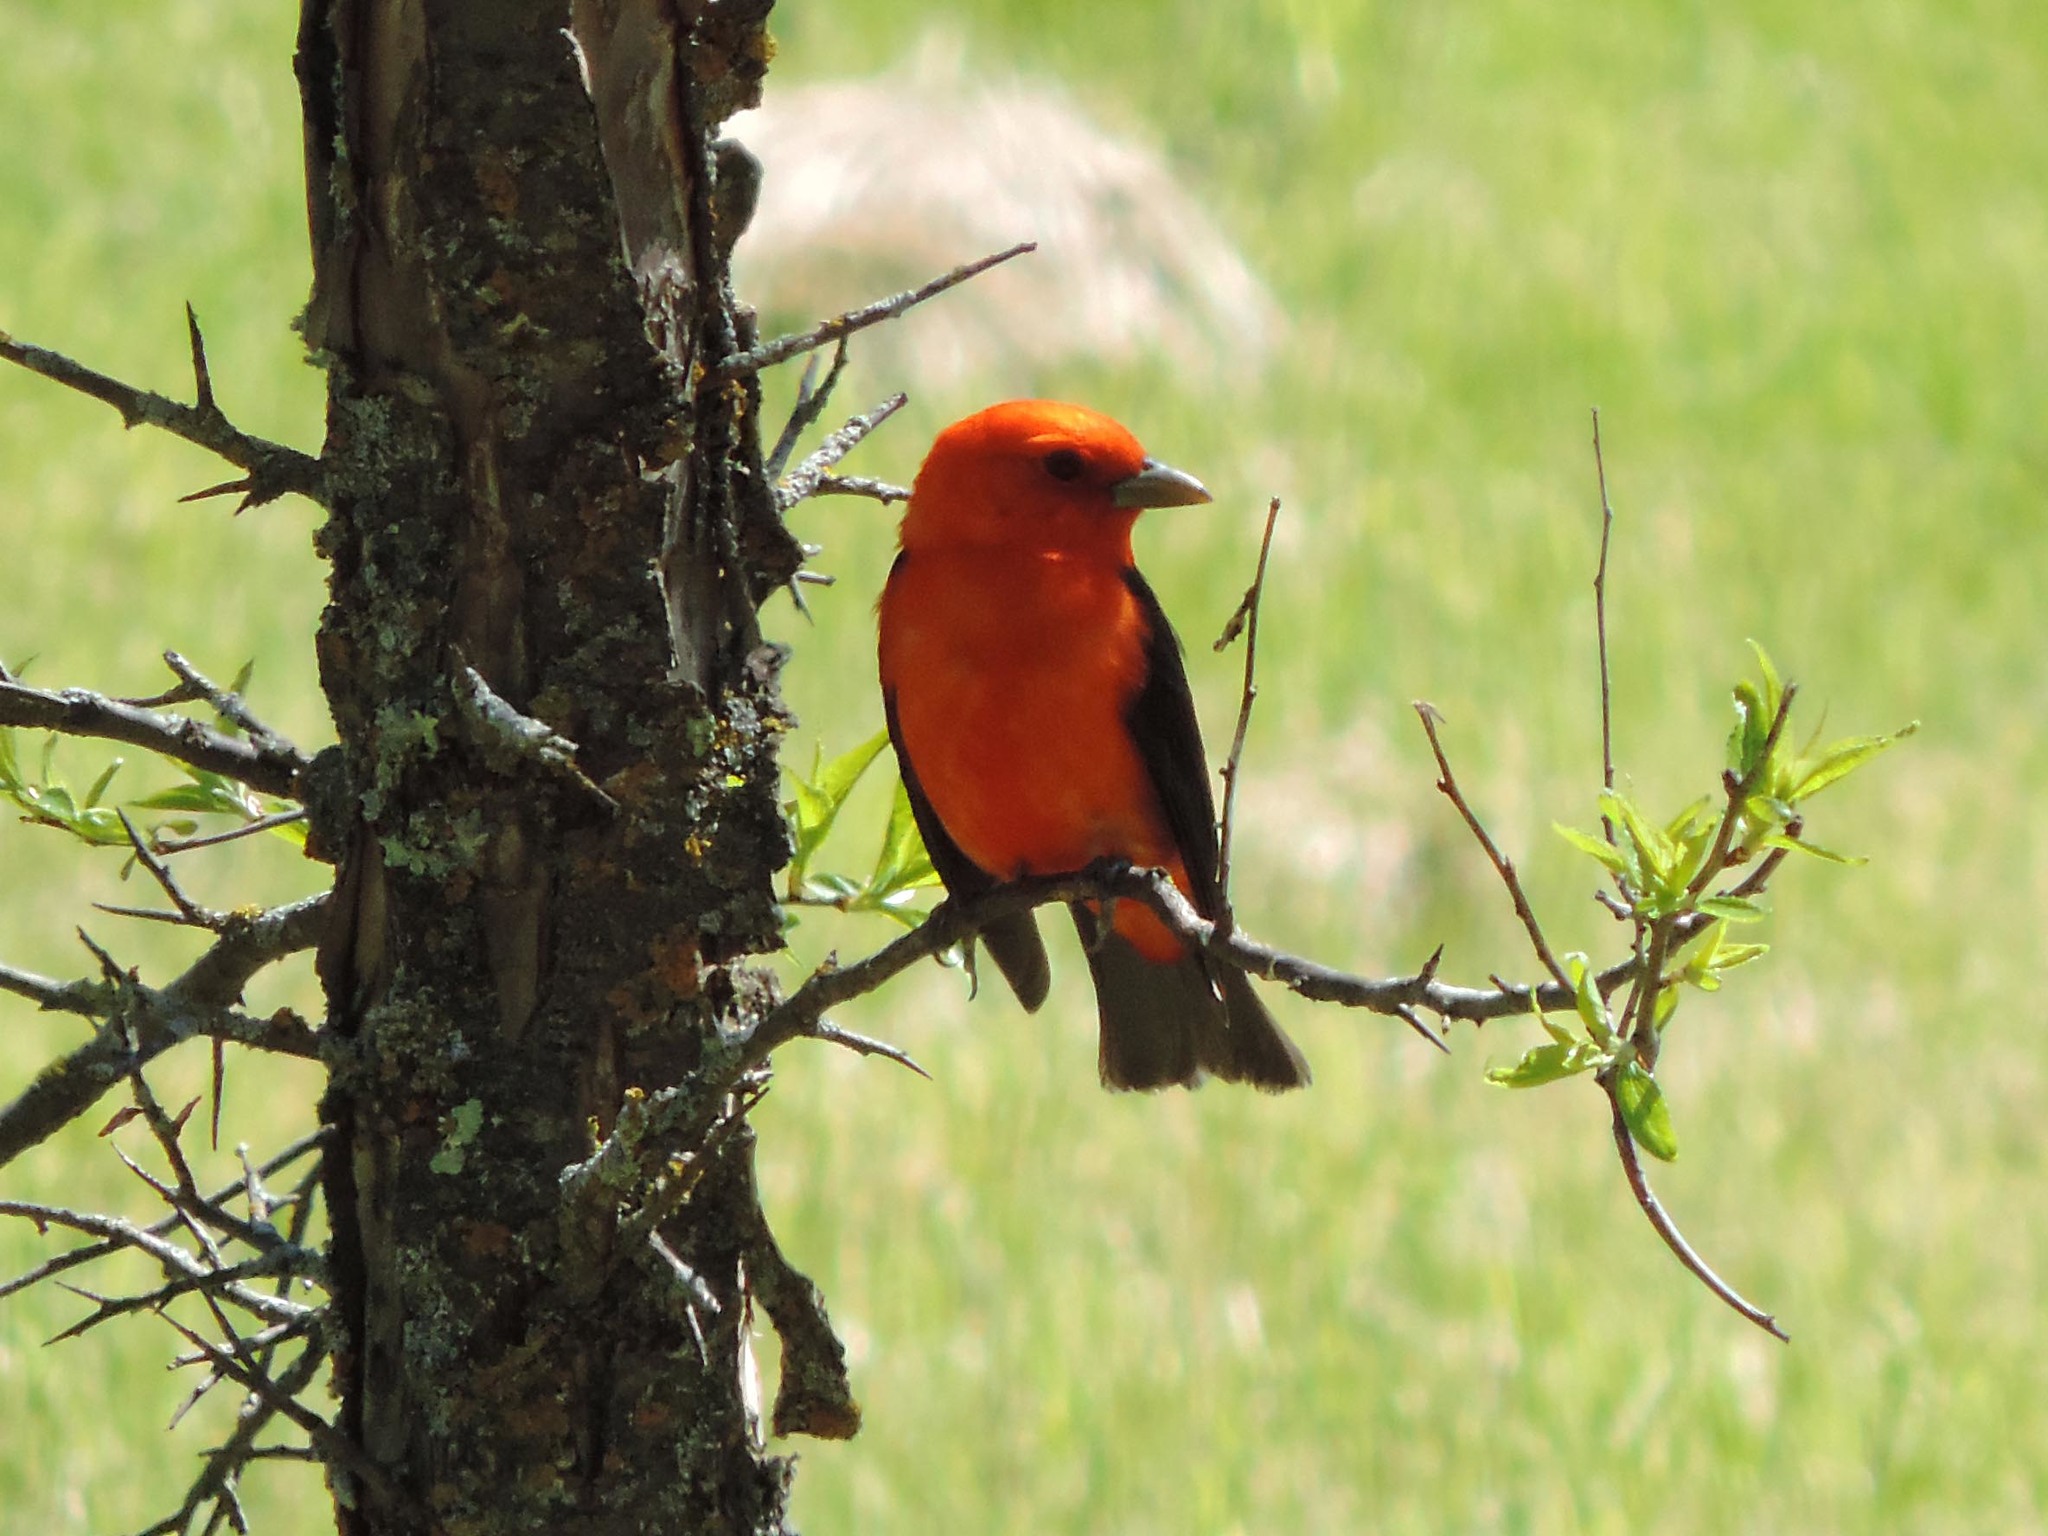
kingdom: Animalia
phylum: Chordata
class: Aves
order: Passeriformes
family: Cardinalidae
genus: Piranga
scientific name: Piranga olivacea
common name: Scarlet tanager
